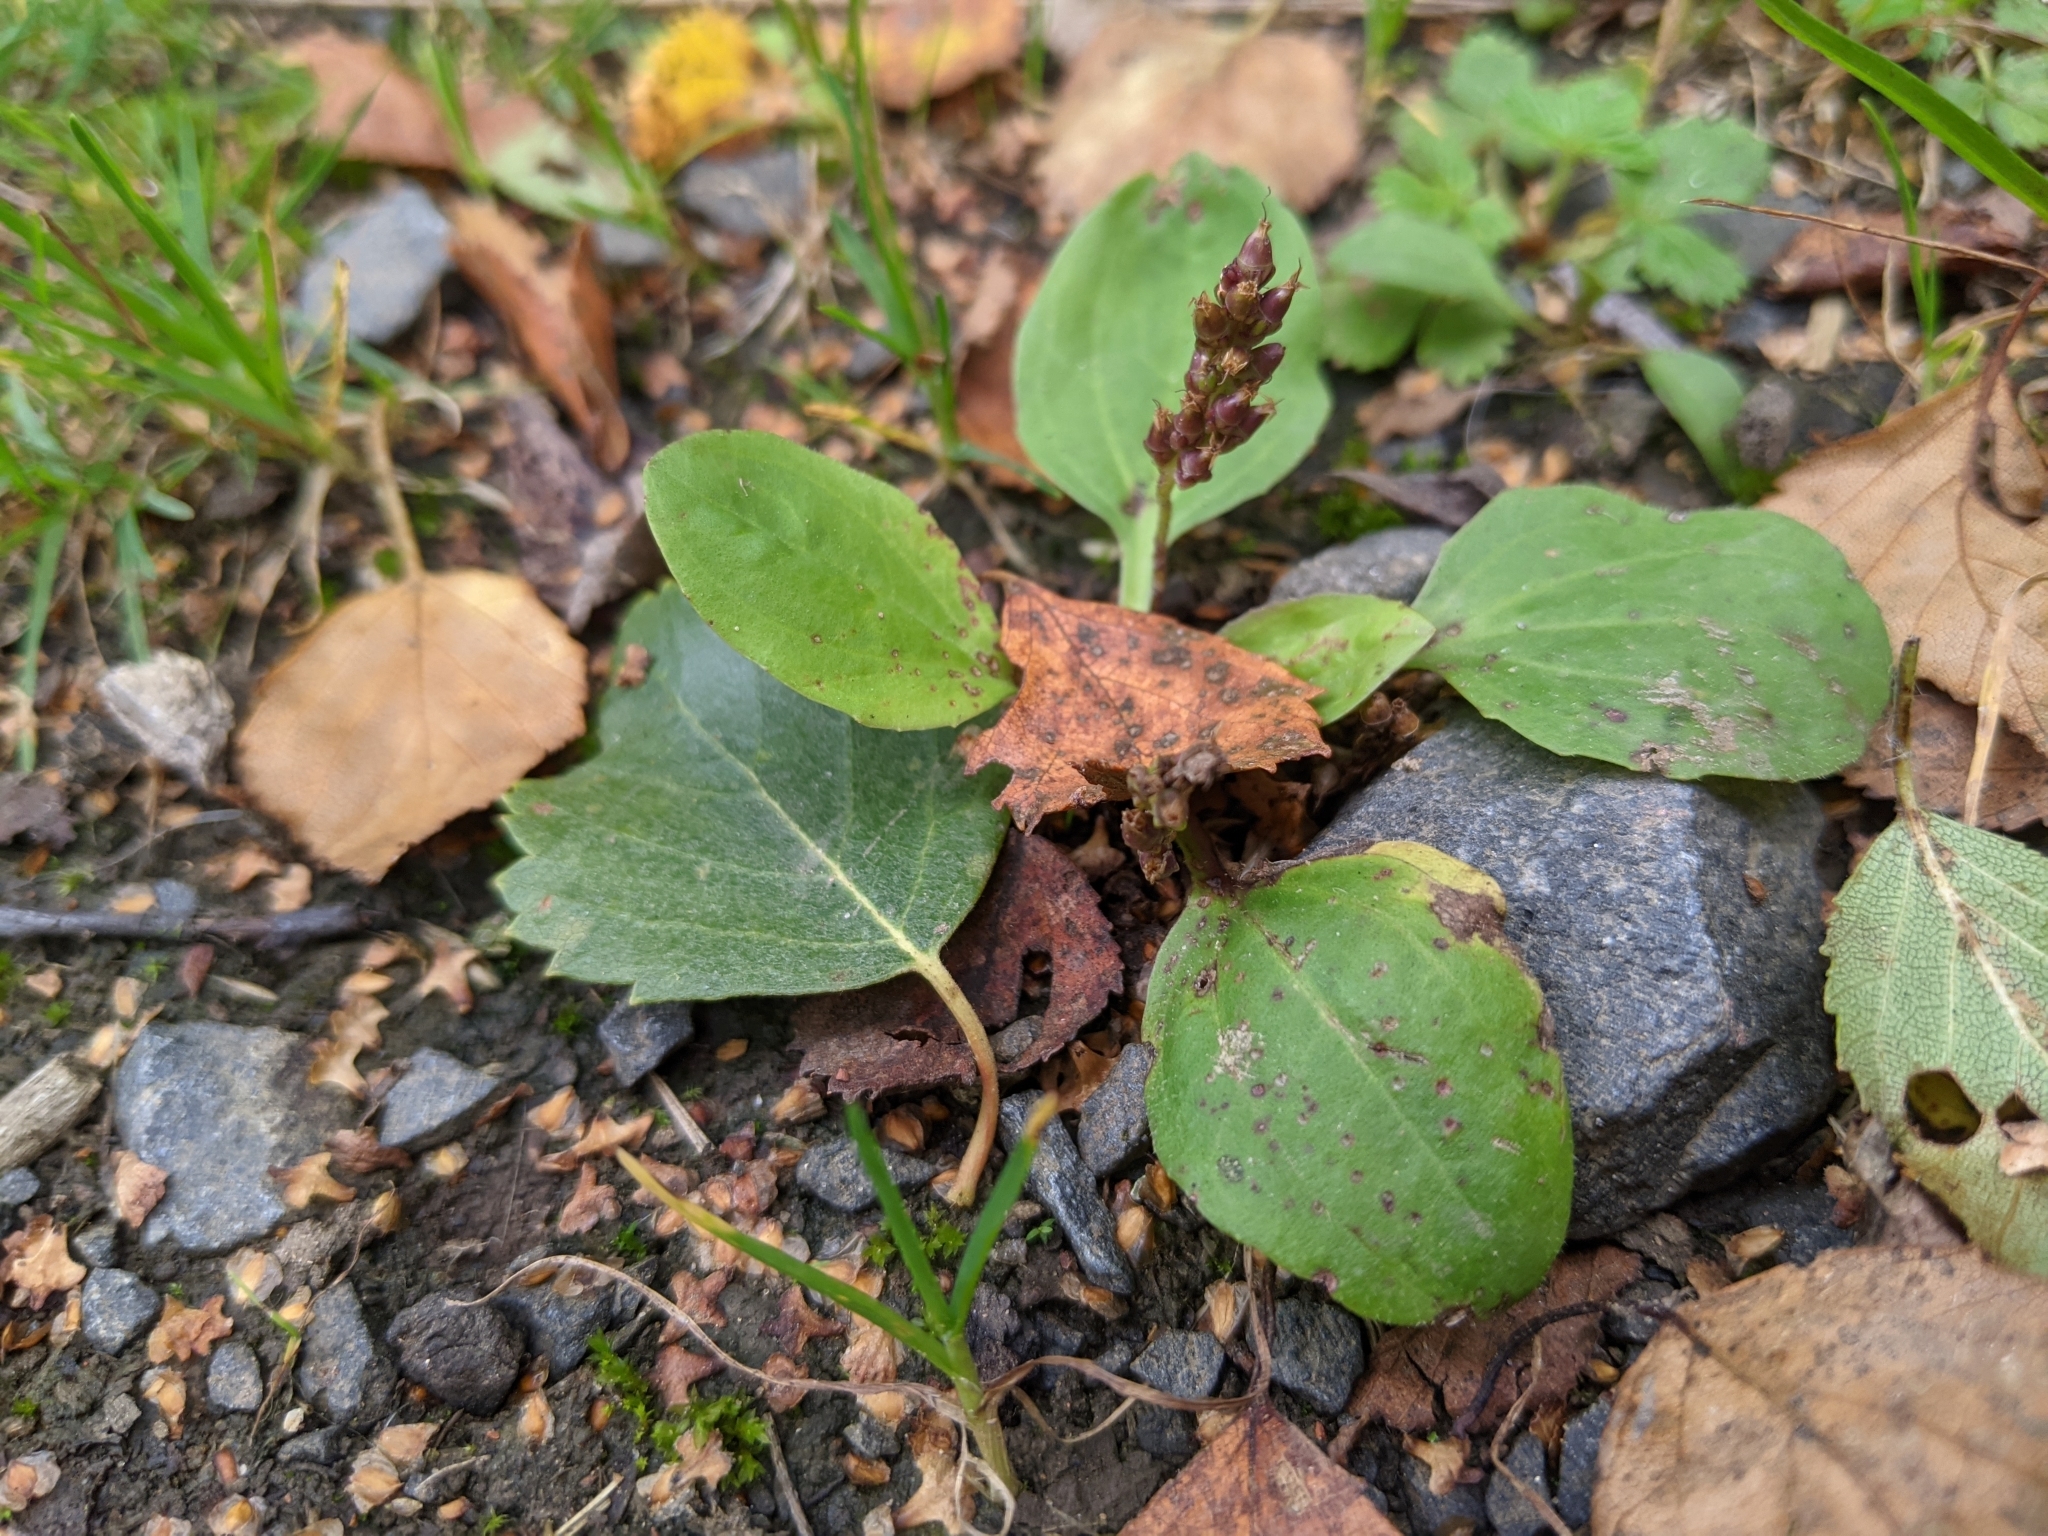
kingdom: Plantae
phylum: Tracheophyta
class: Magnoliopsida
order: Lamiales
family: Plantaginaceae
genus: Plantago
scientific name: Plantago major
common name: Common plantain
